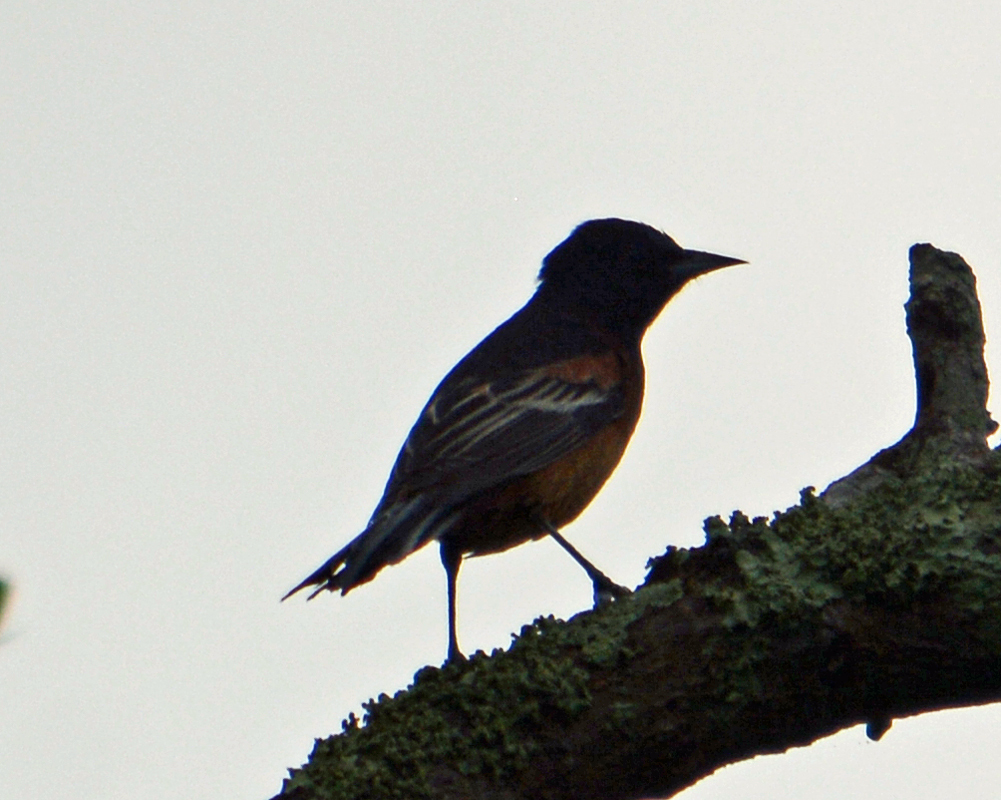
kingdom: Animalia
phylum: Chordata
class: Aves
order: Passeriformes
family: Icteridae
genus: Icterus
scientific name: Icterus spurius
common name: Orchard oriole
